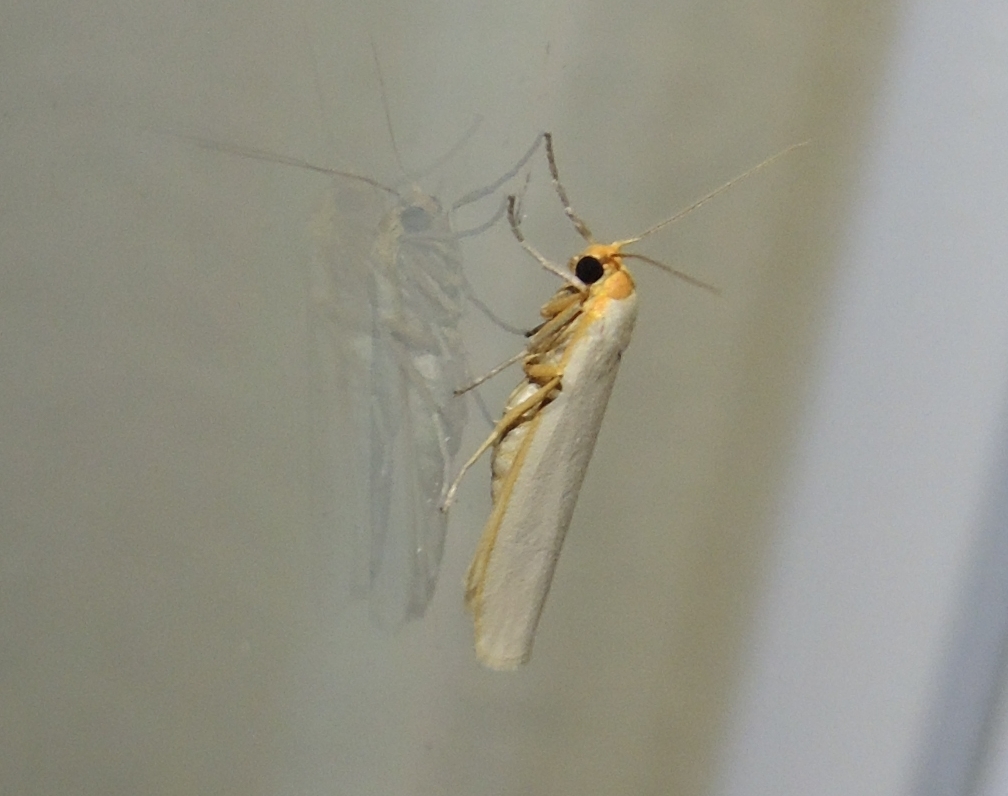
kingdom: Animalia
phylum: Arthropoda
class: Insecta
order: Lepidoptera
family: Erebidae
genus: Eilema
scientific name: Eilema caniola
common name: Hoary footman
